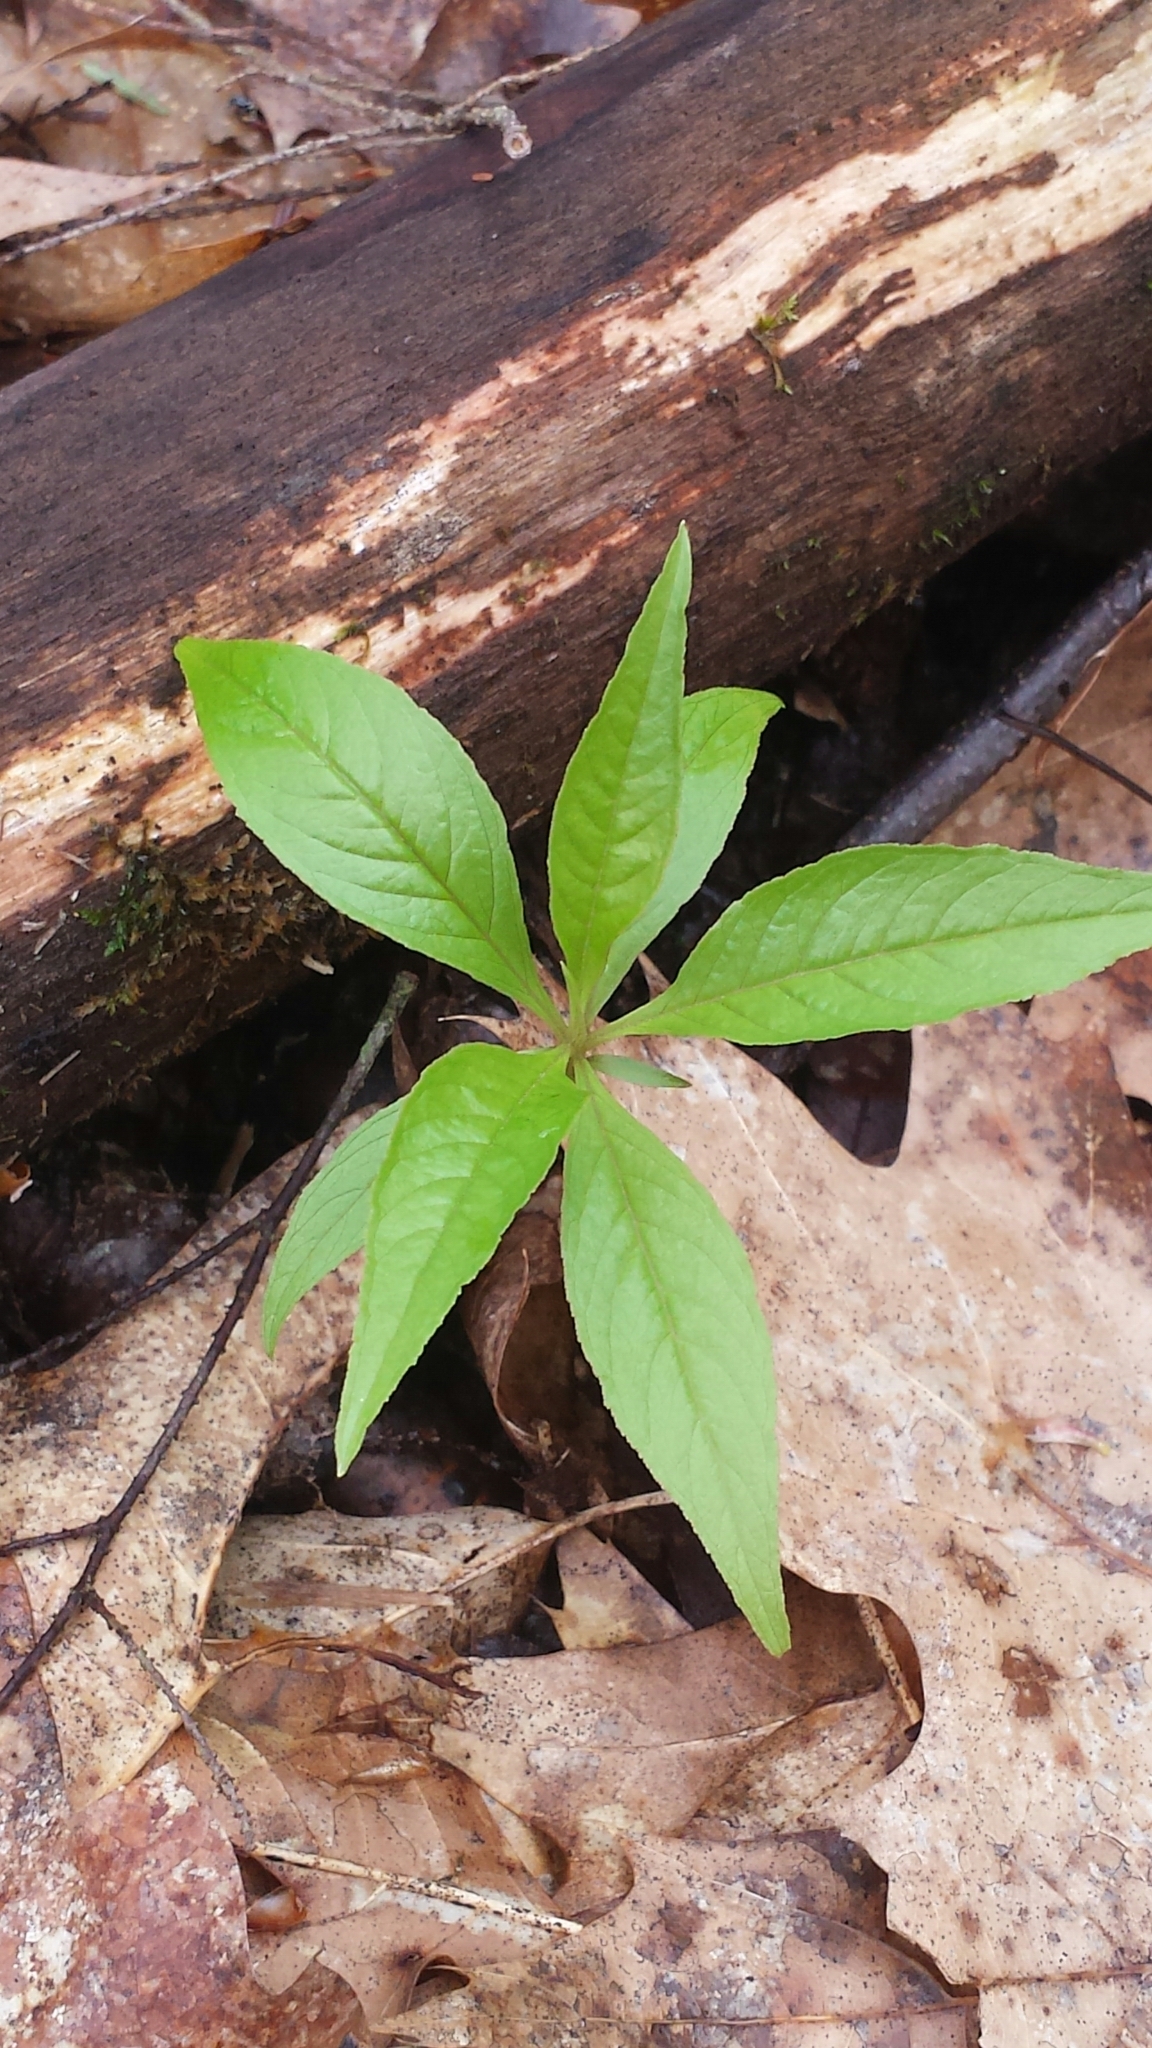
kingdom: Plantae
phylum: Tracheophyta
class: Magnoliopsida
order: Ericales
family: Primulaceae
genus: Lysimachia
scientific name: Lysimachia borealis
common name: American starflower
